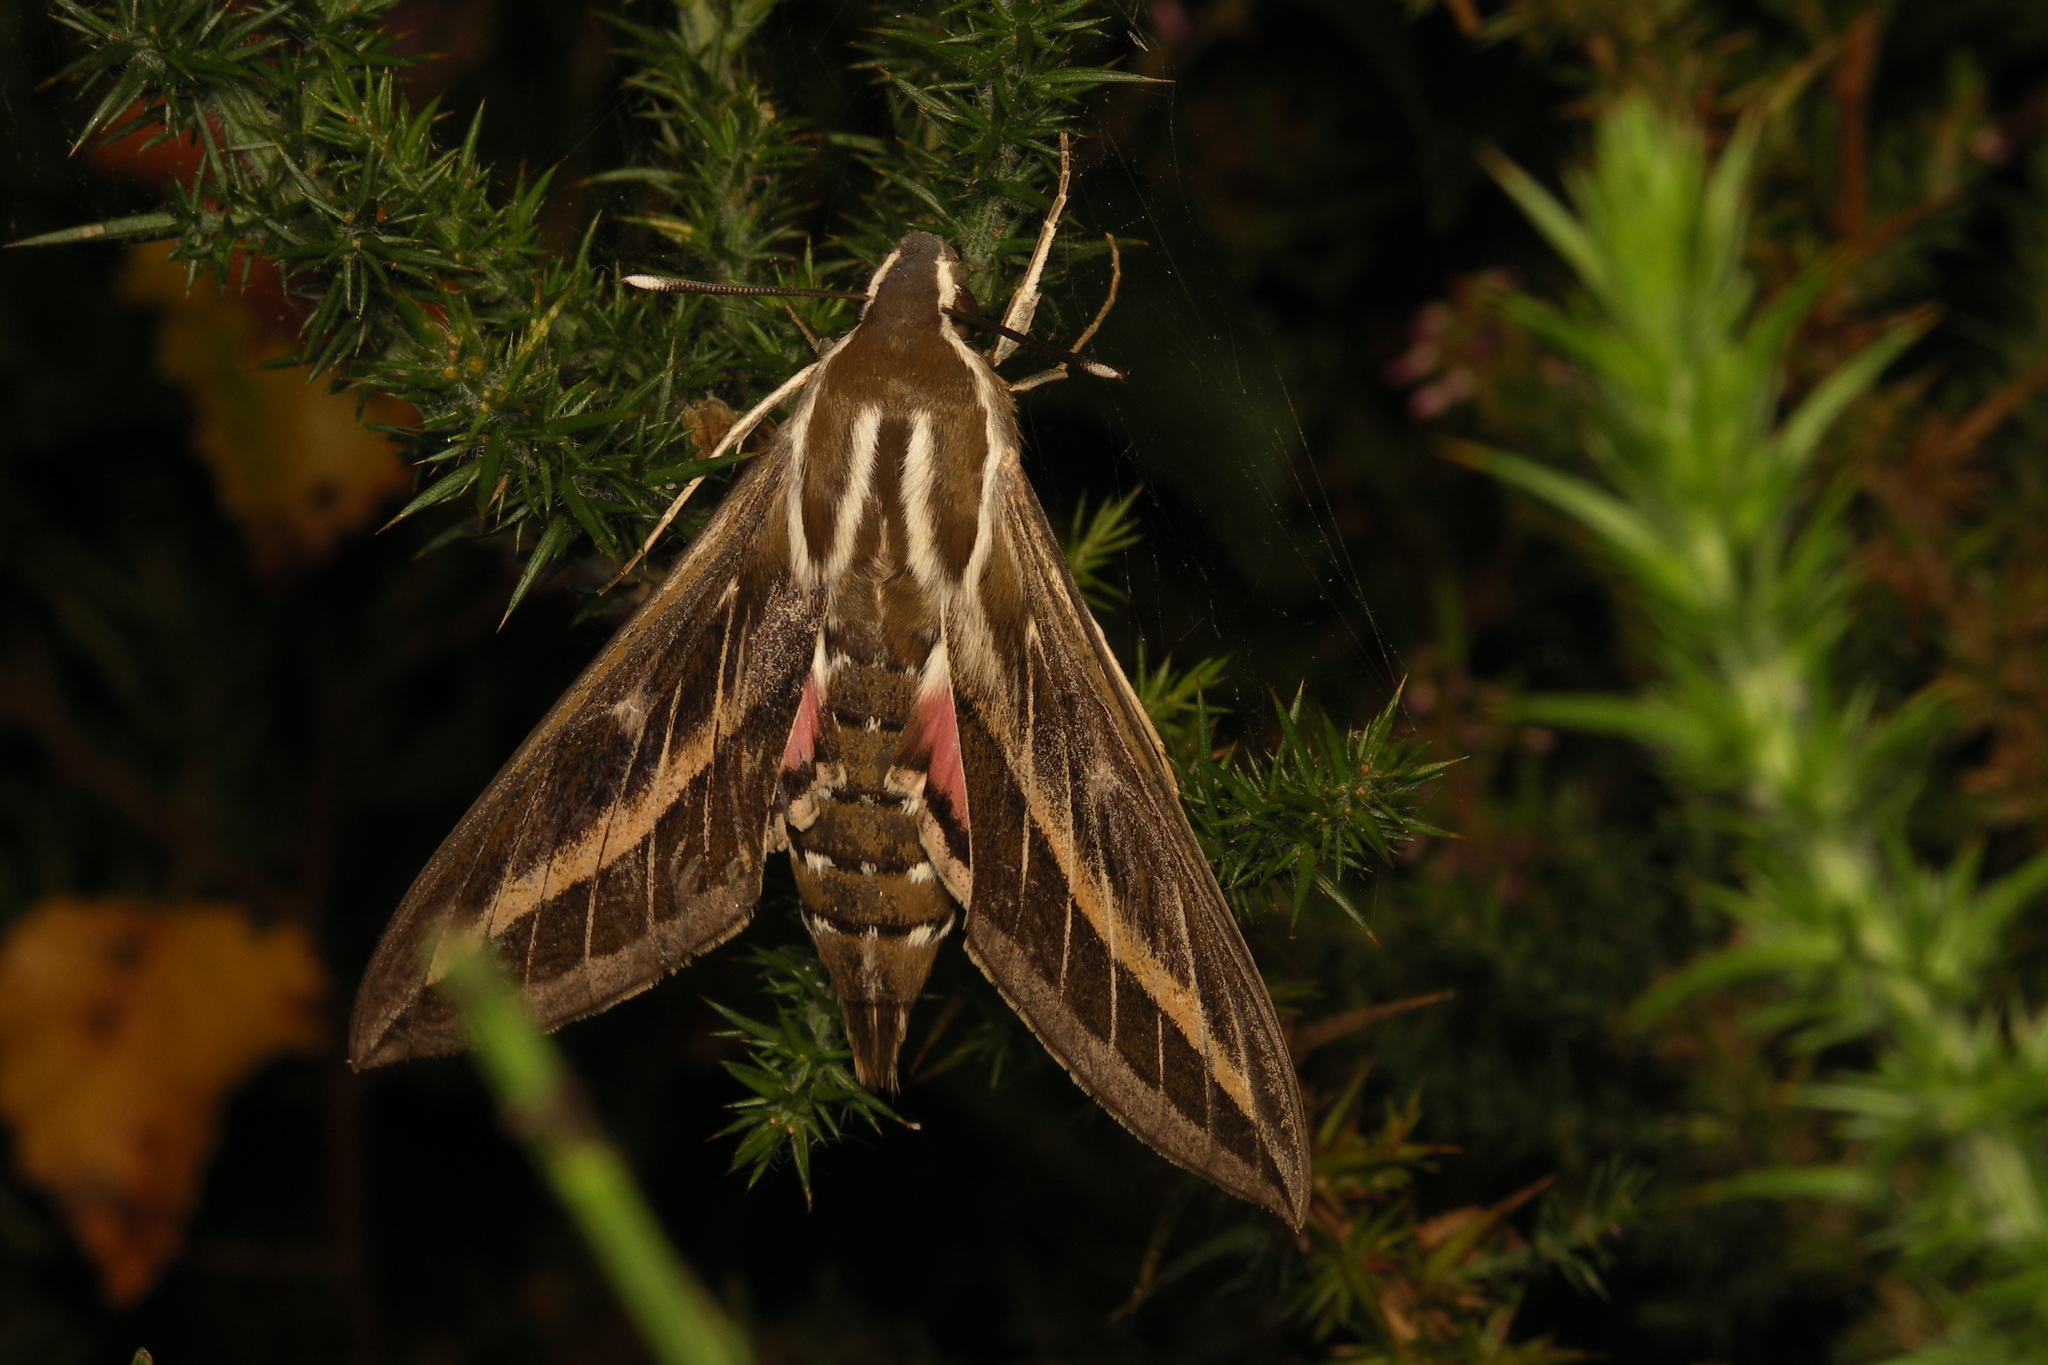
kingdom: Animalia
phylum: Arthropoda
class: Insecta
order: Lepidoptera
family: Sphingidae
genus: Hyles
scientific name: Hyles livornica
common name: Striped hawk-moth
